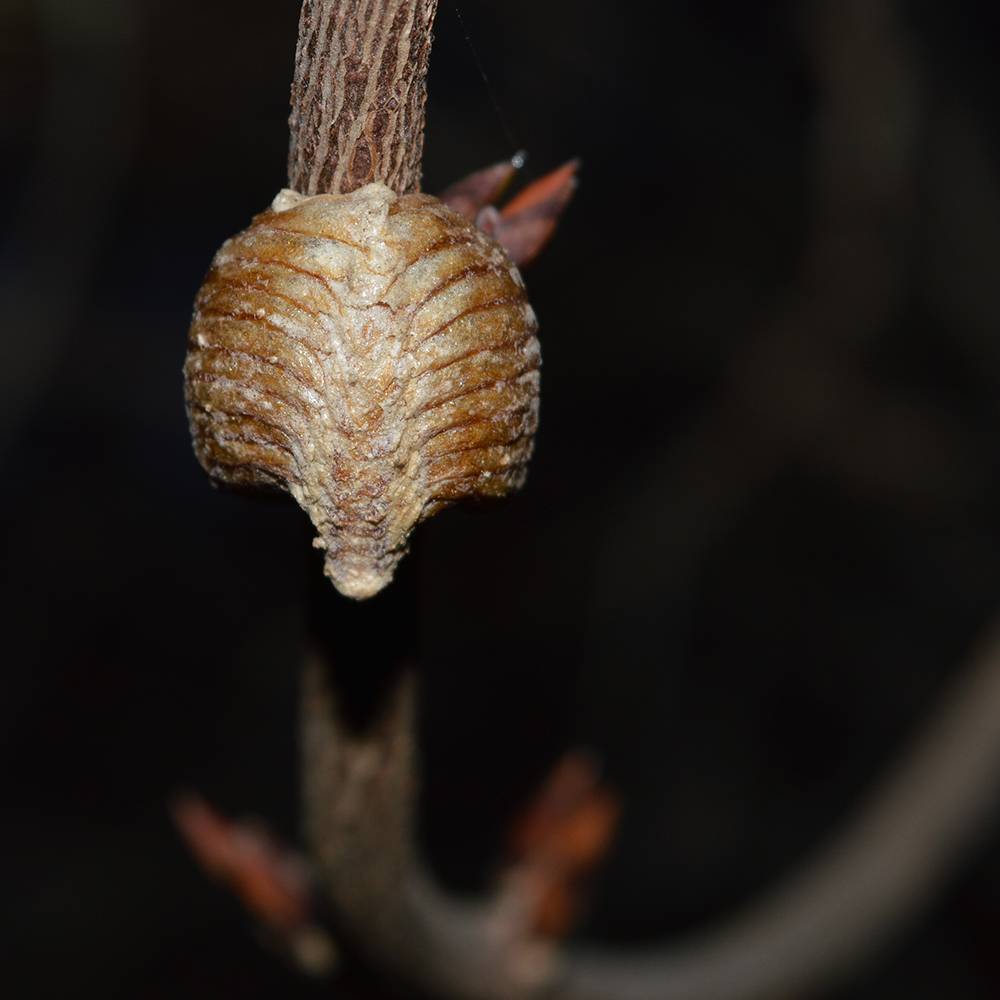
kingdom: Animalia
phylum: Arthropoda
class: Insecta
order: Mantodea
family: Mantidae
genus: Hierodula
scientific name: Hierodula transcaucasica
